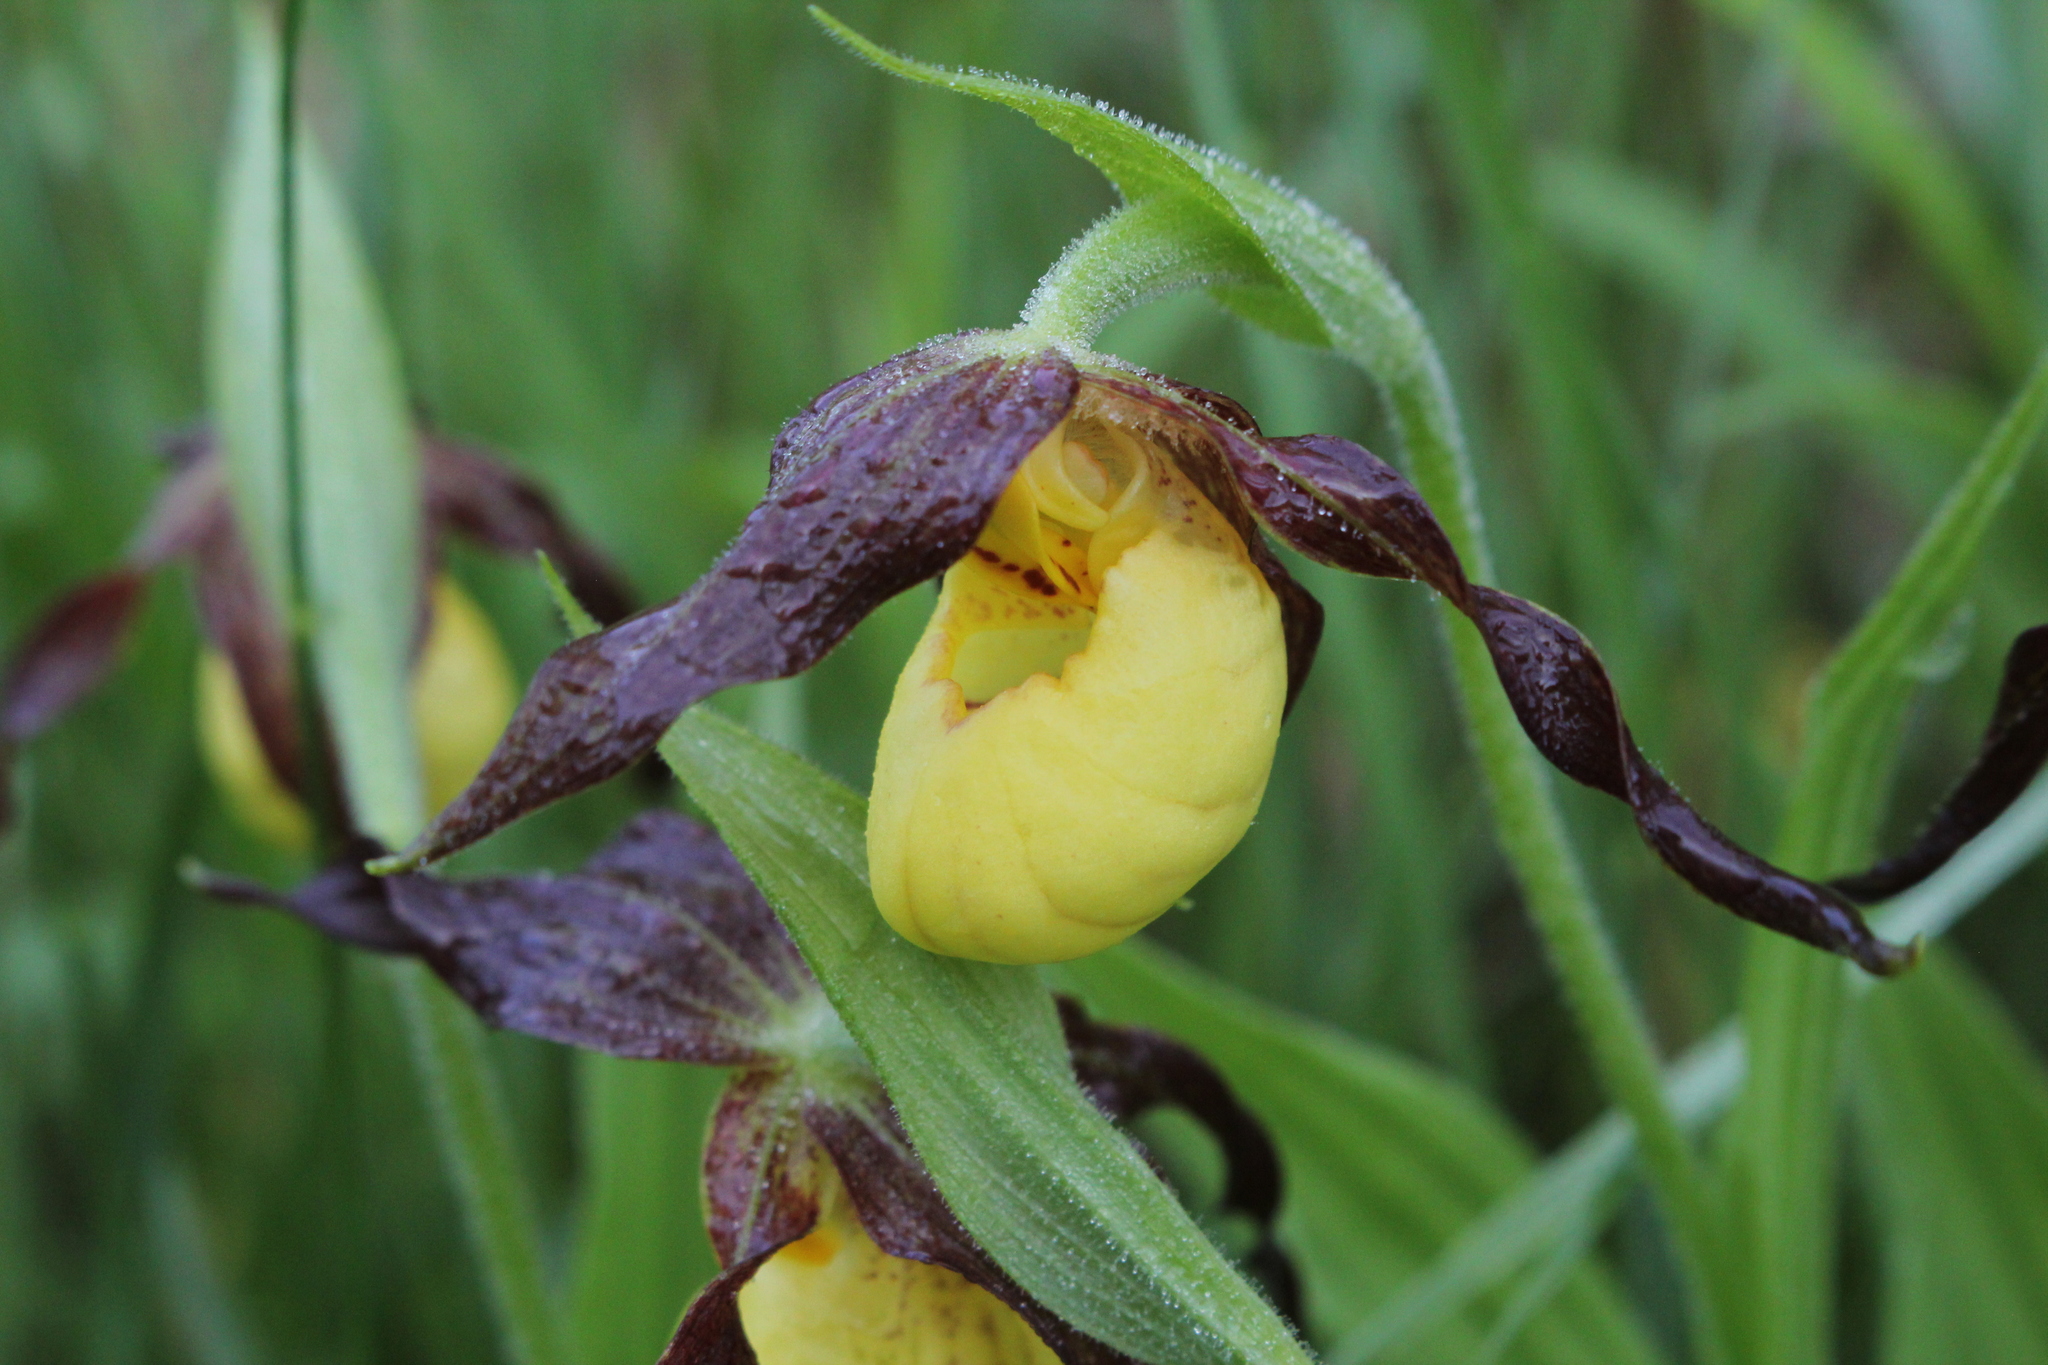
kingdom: Plantae
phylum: Tracheophyta
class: Liliopsida
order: Asparagales
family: Orchidaceae
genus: Cypripedium
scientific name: Cypripedium parviflorum
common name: American yellow lady's-slipper
